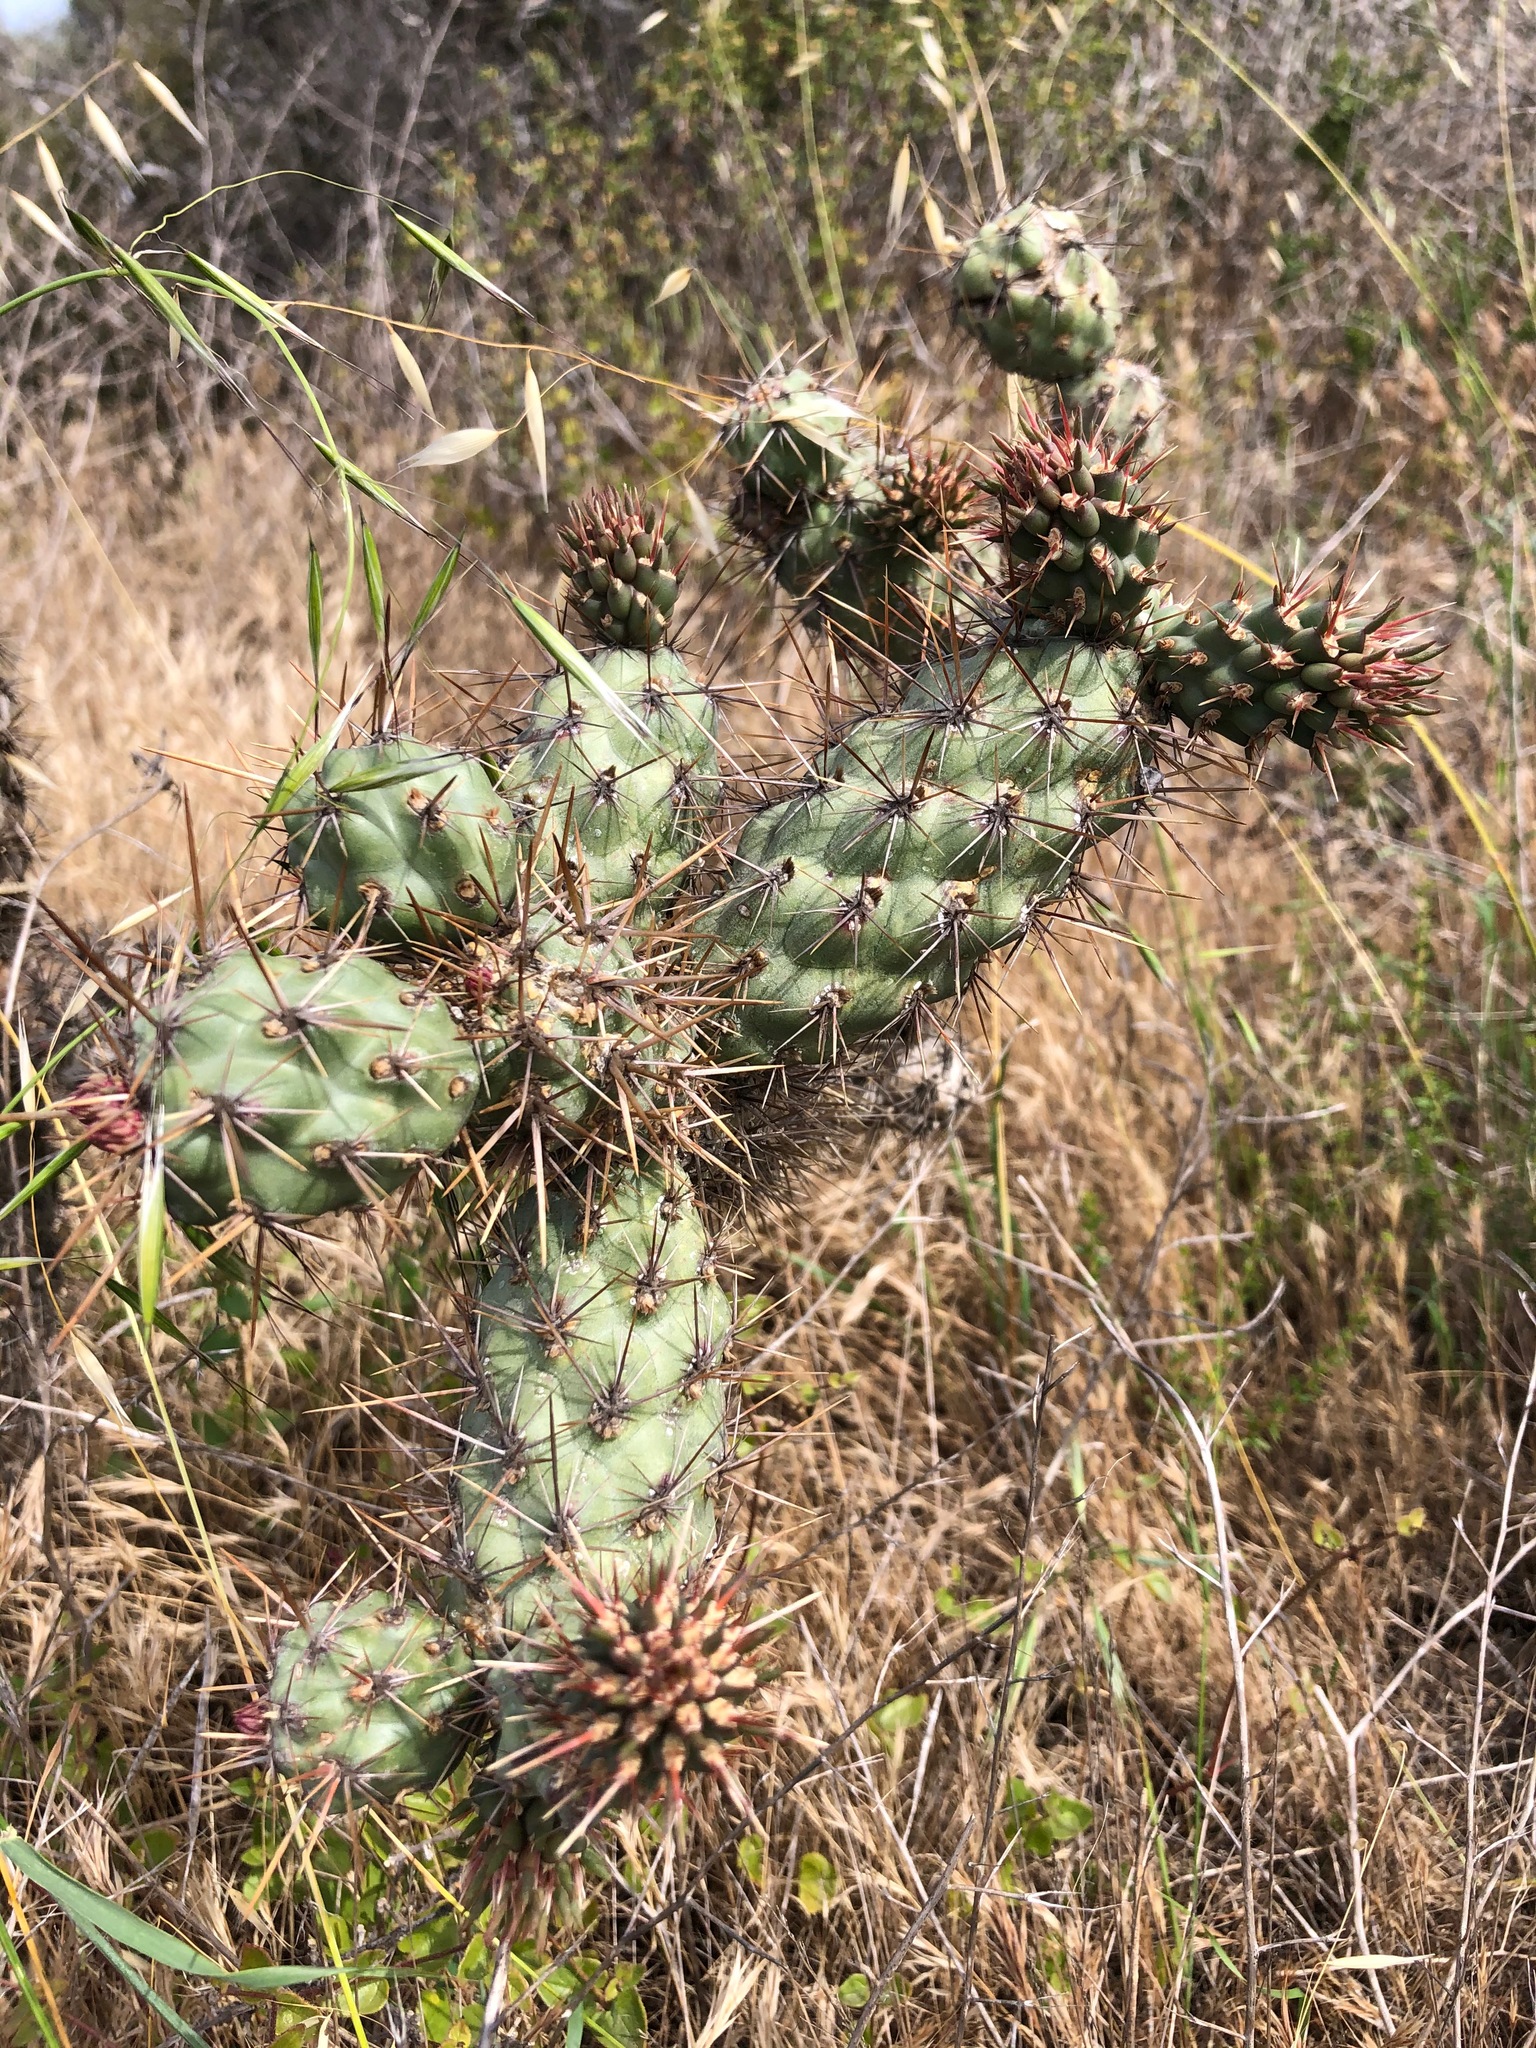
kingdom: Plantae
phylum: Tracheophyta
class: Magnoliopsida
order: Caryophyllales
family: Cactaceae
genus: Cylindropuntia
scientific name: Cylindropuntia prolifera
